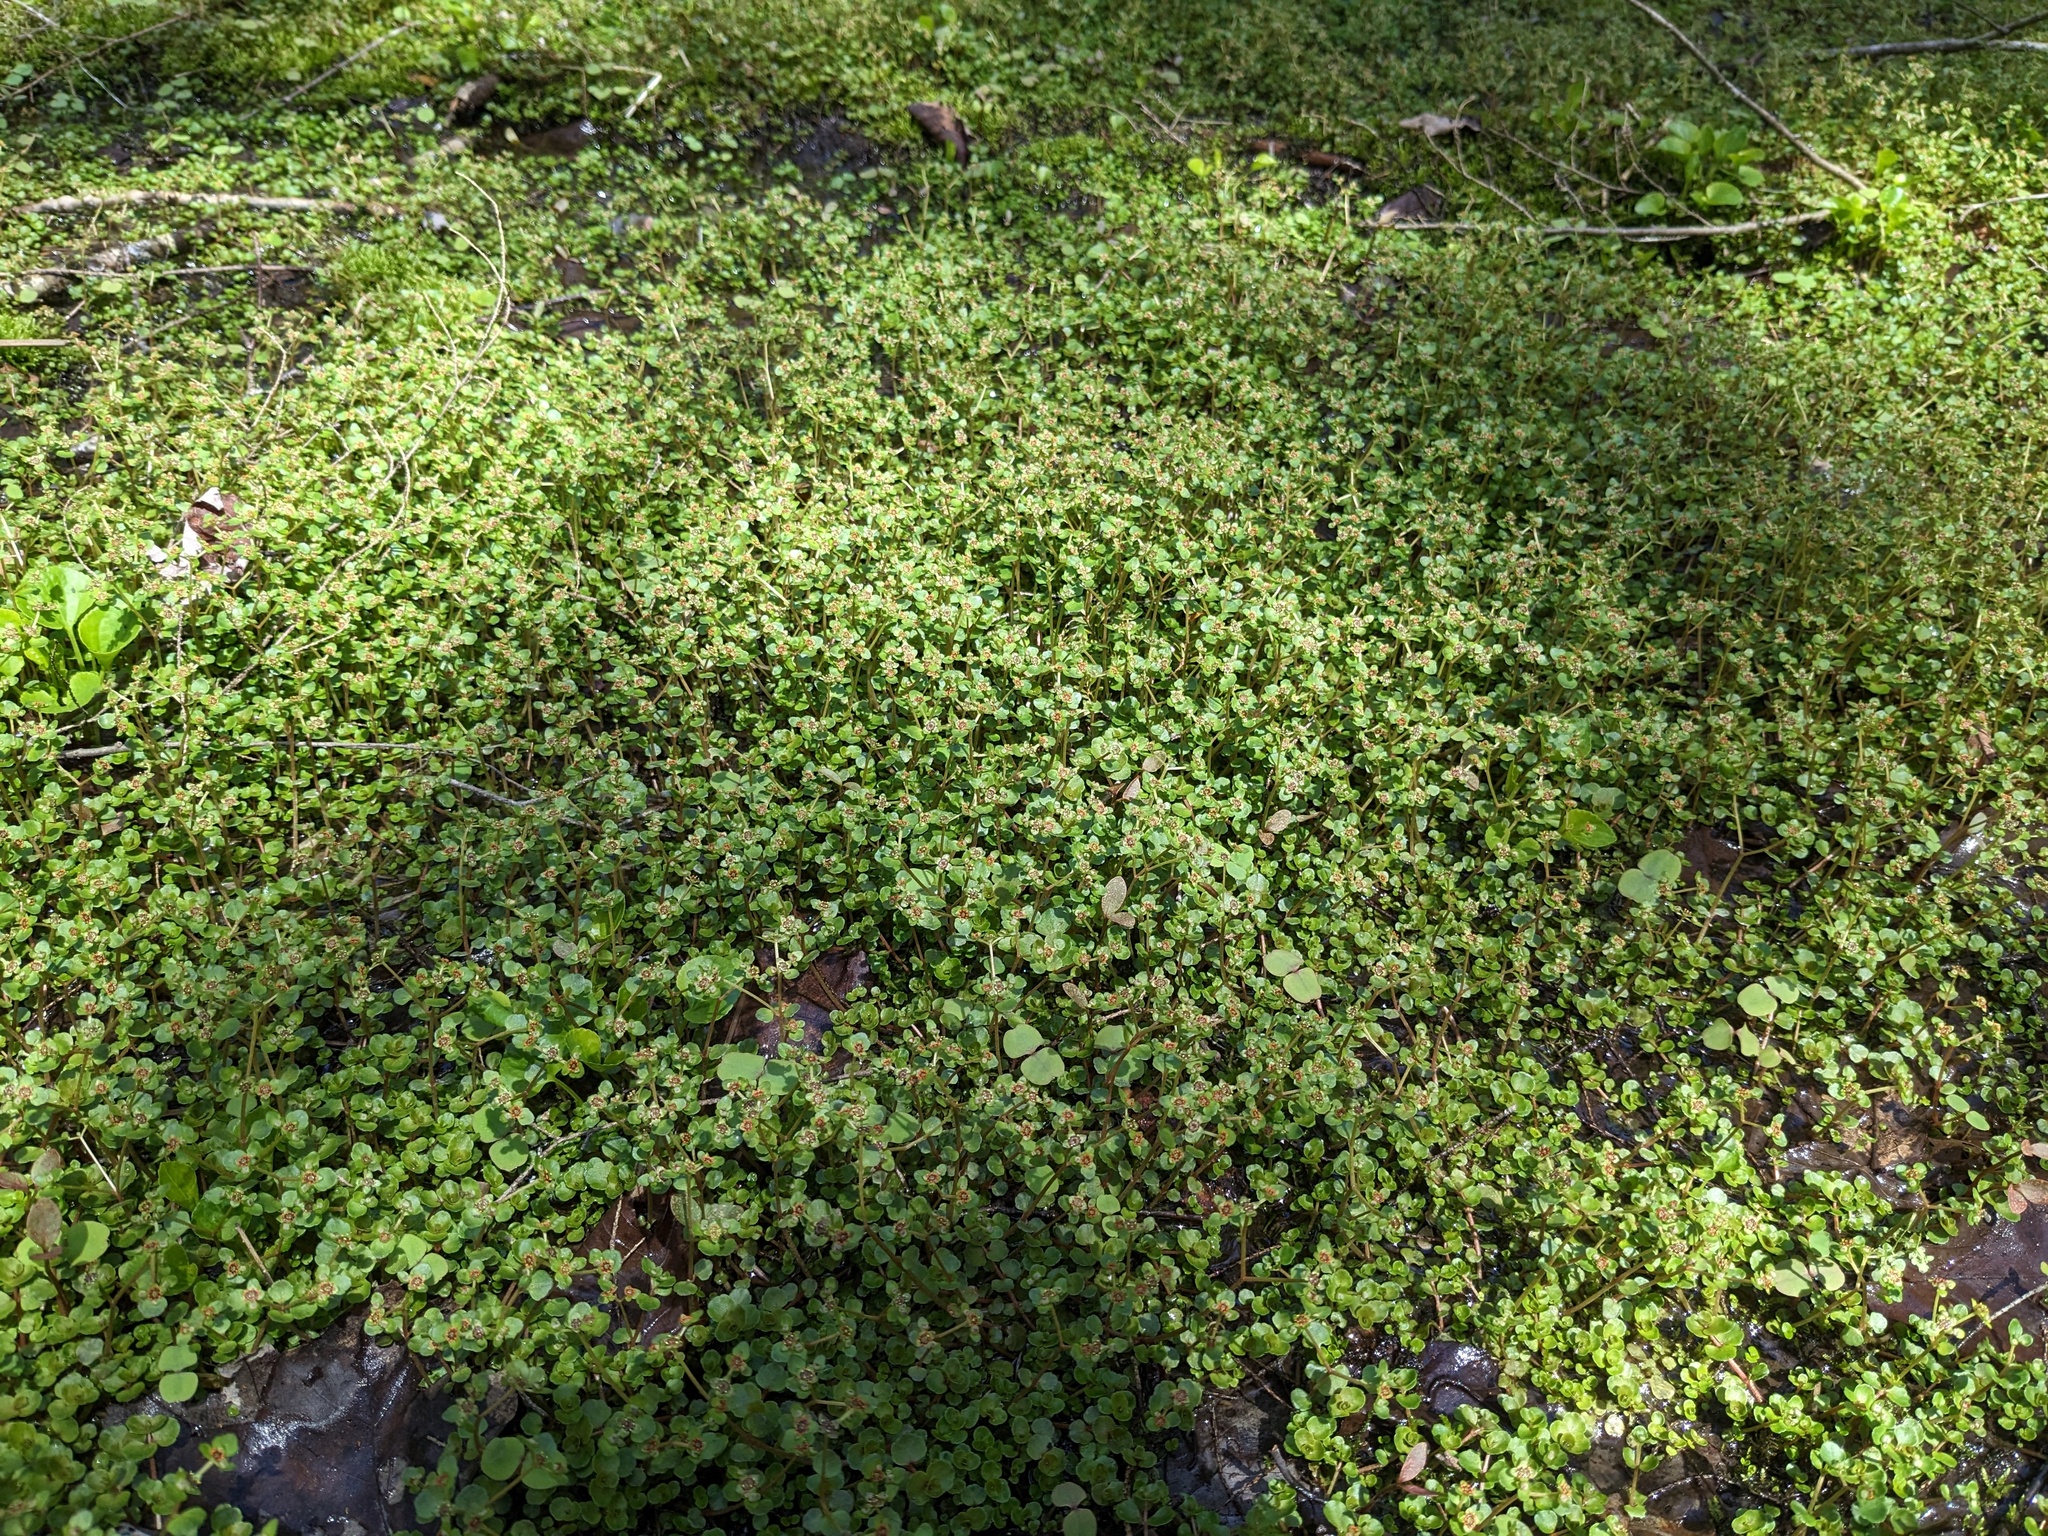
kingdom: Plantae
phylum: Tracheophyta
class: Magnoliopsida
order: Saxifragales
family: Saxifragaceae
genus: Chrysosplenium
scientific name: Chrysosplenium americanum
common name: American golden-saxifrage
